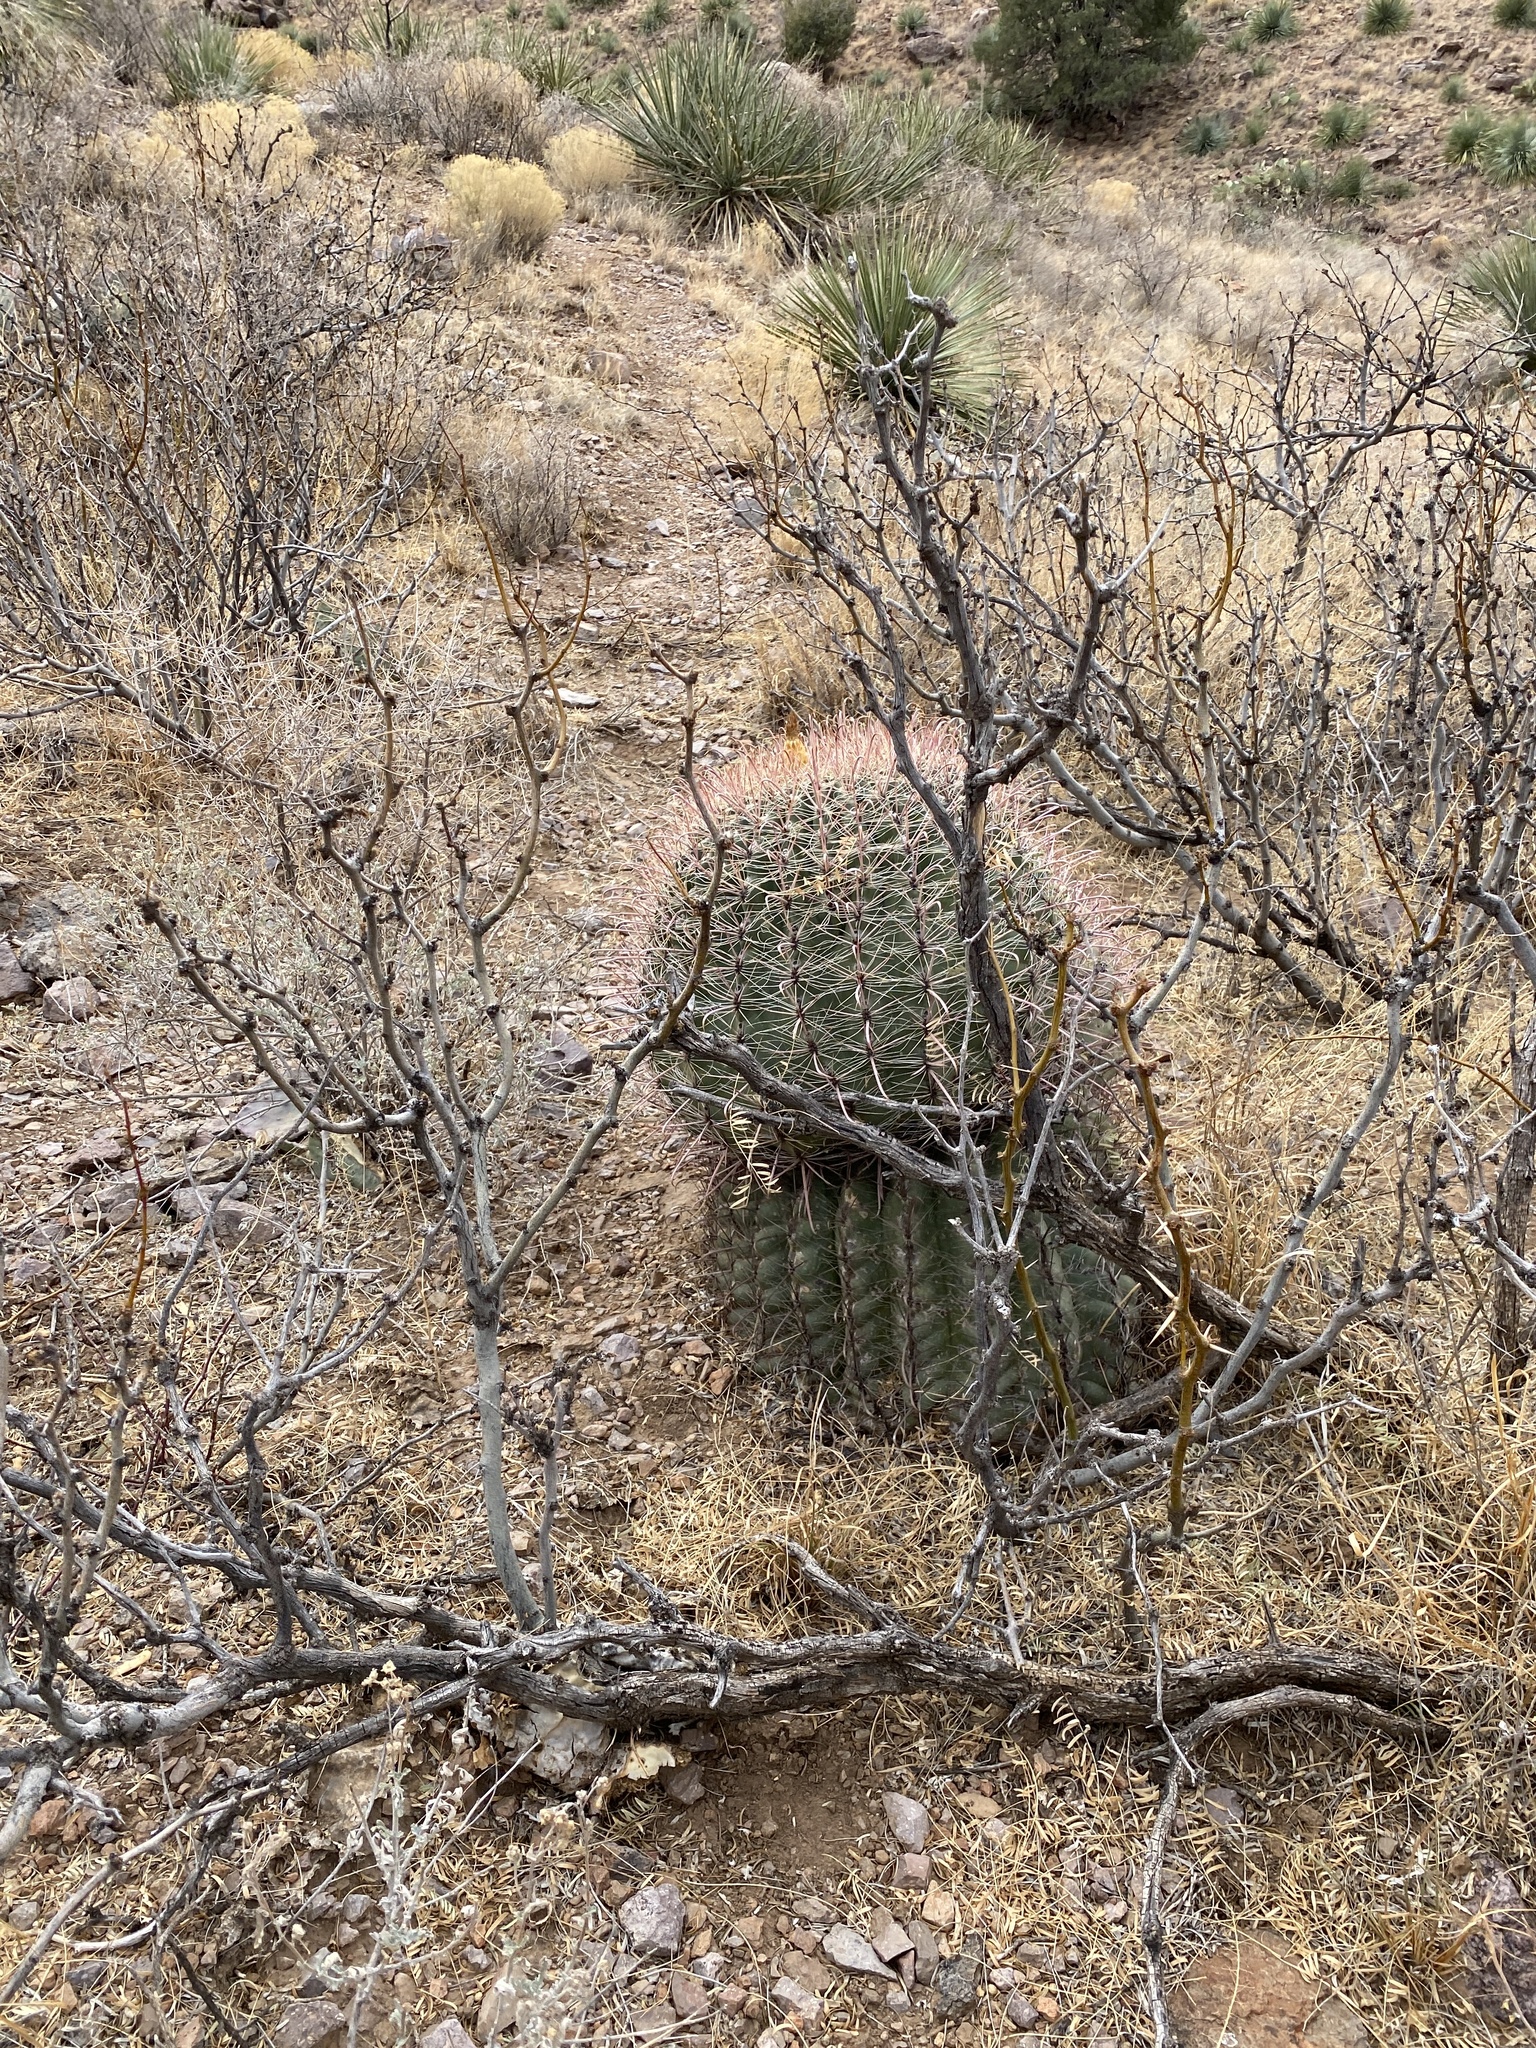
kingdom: Plantae
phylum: Tracheophyta
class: Magnoliopsida
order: Caryophyllales
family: Cactaceae
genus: Ferocactus
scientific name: Ferocactus wislizeni
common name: Candy barrel cactus
